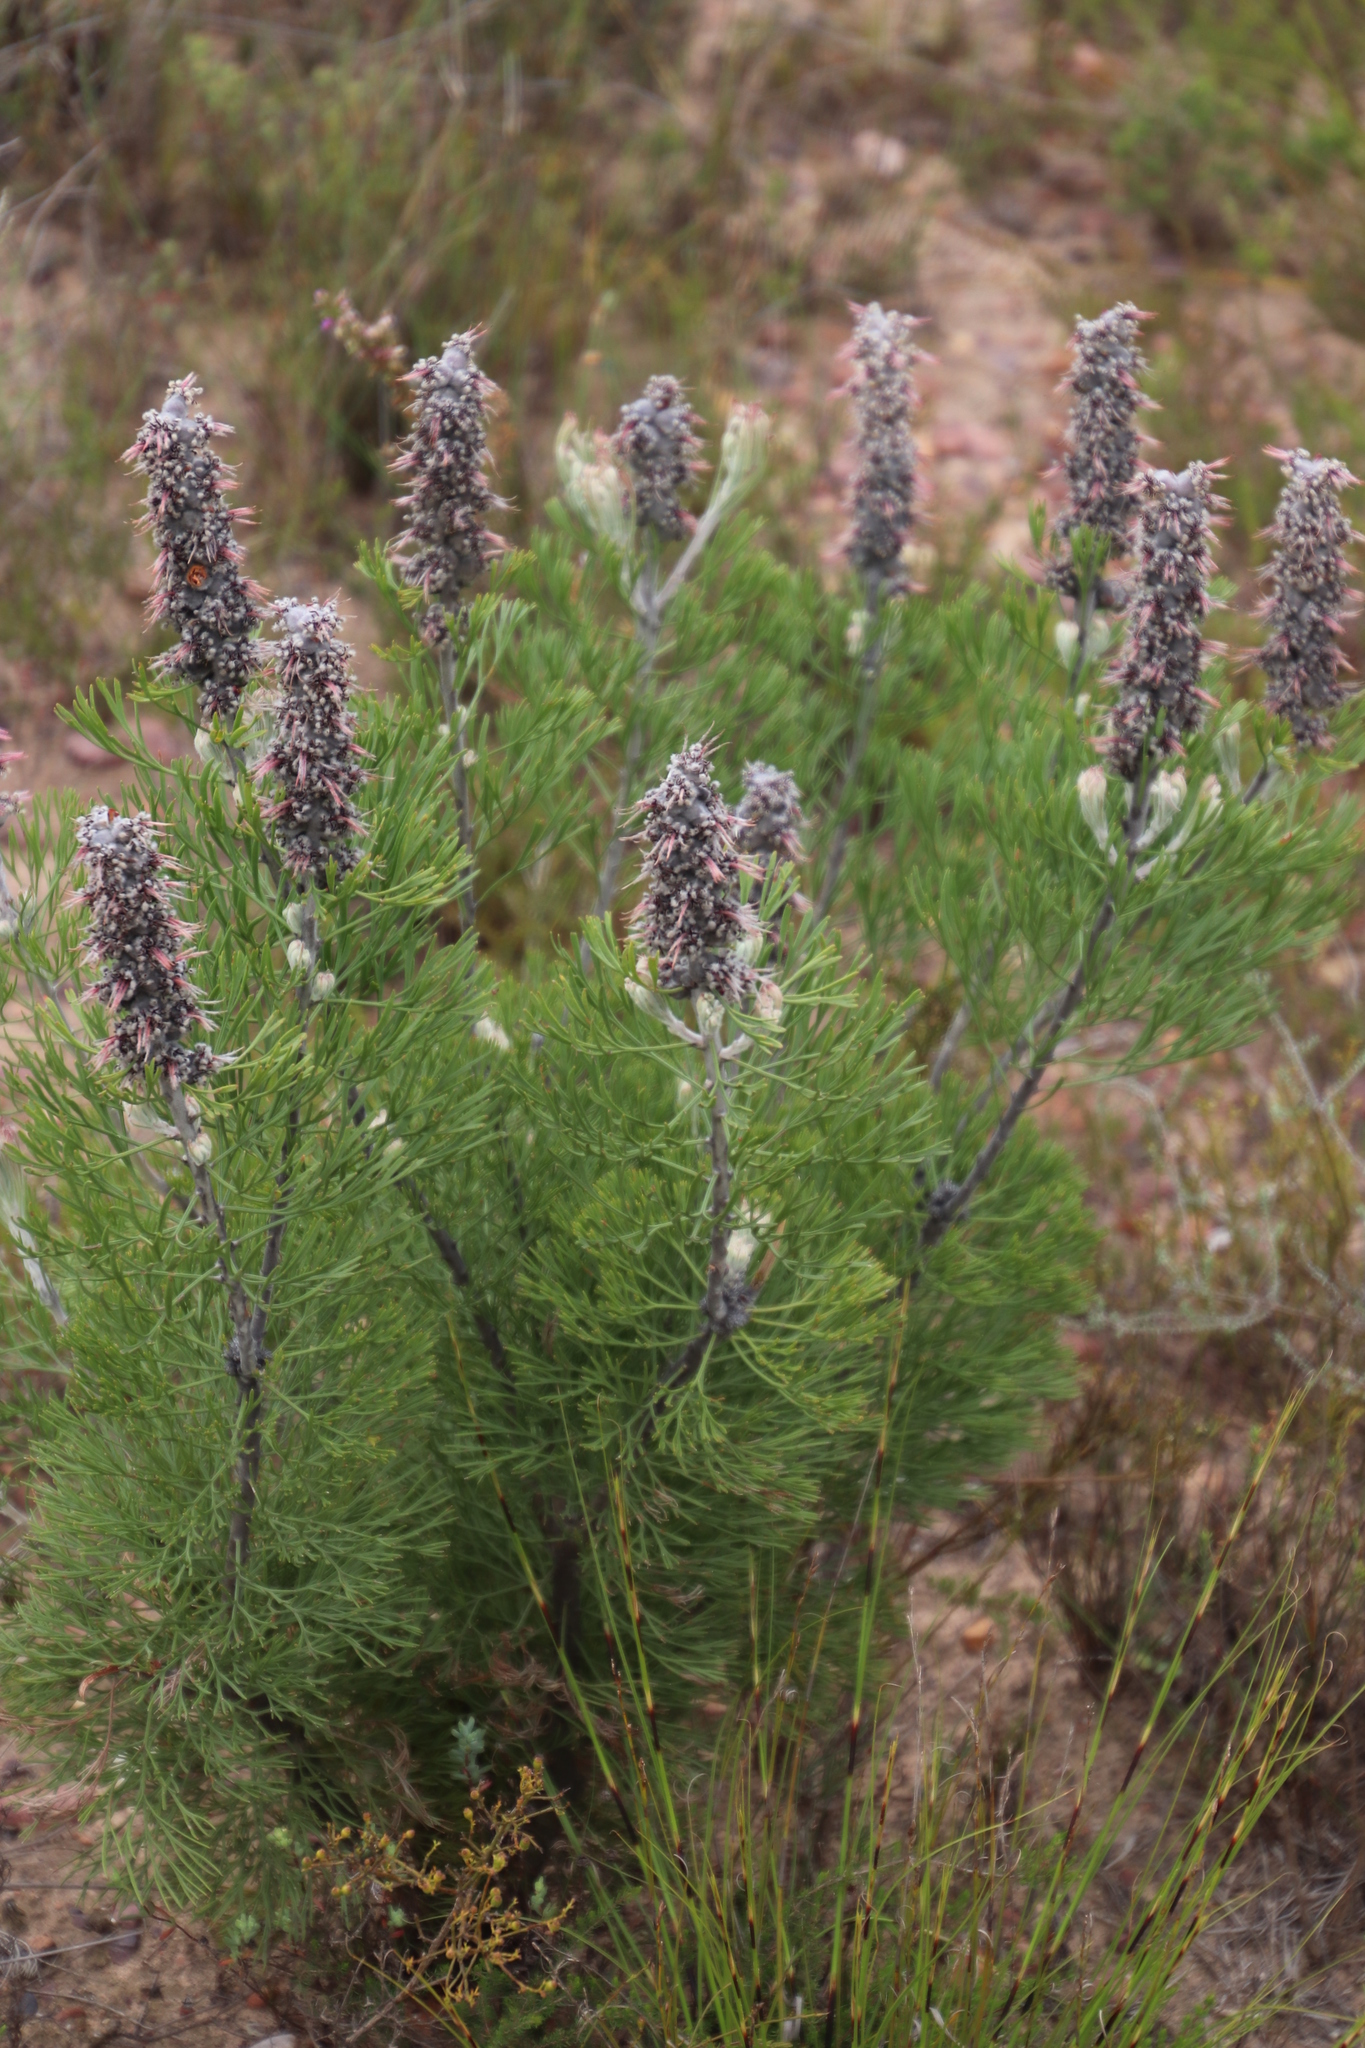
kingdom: Plantae
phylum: Tracheophyta
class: Magnoliopsida
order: Proteales
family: Proteaceae
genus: Paranomus
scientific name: Paranomus dispersus
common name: Long-head sceptre
